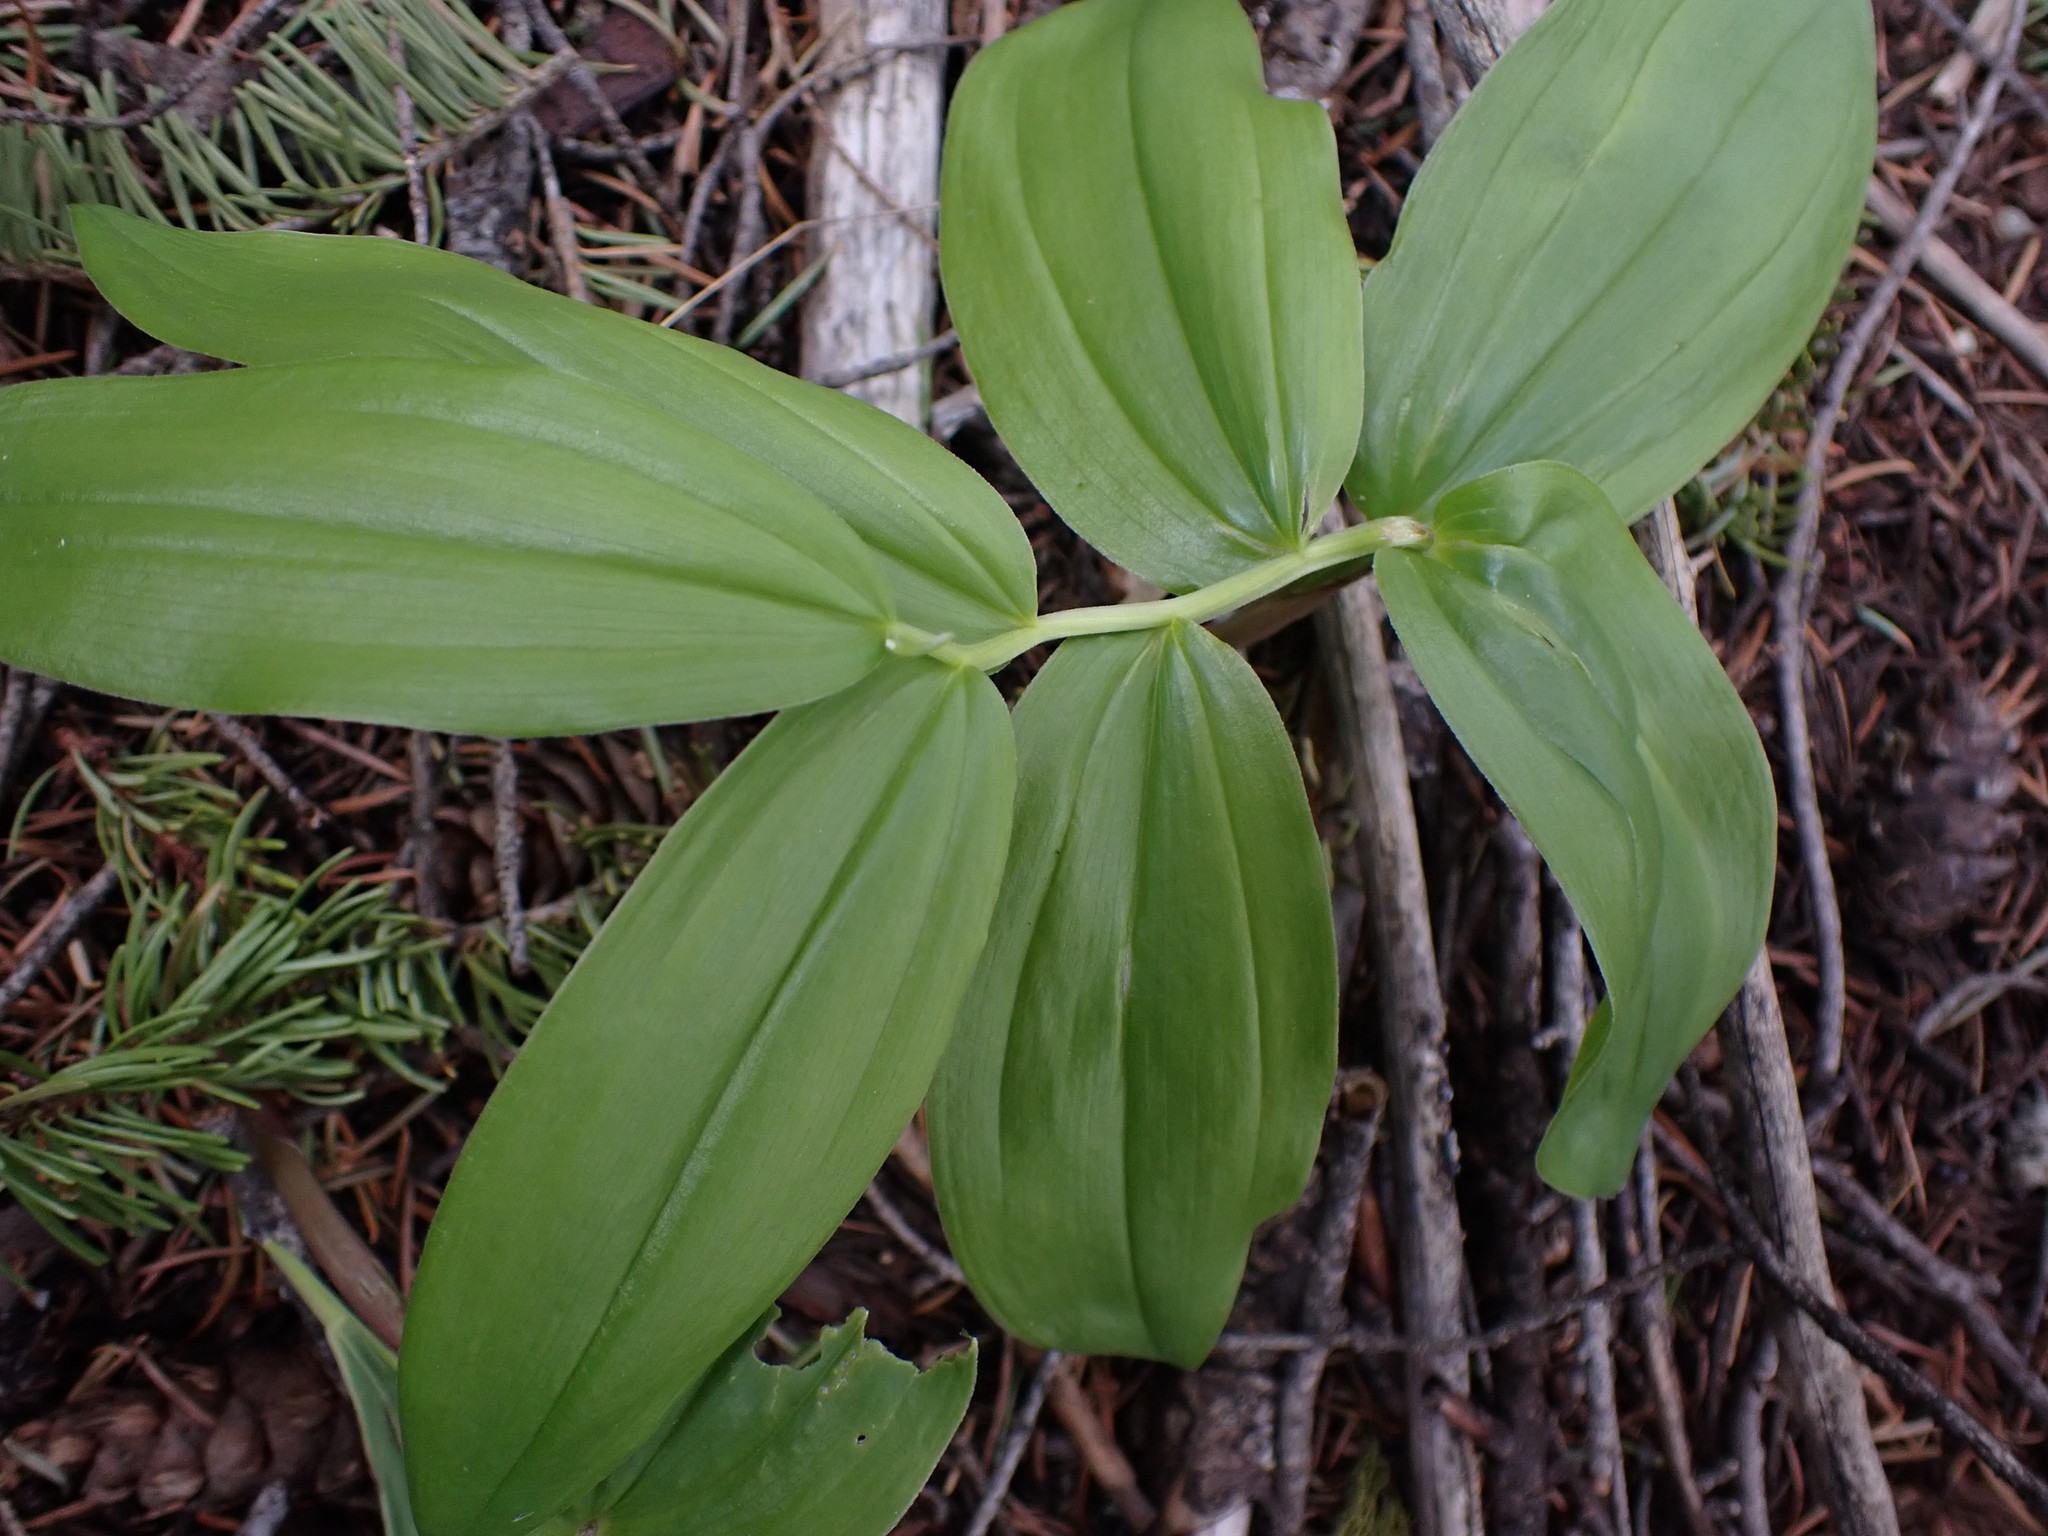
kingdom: Plantae
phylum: Tracheophyta
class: Liliopsida
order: Asparagales
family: Asparagaceae
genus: Maianthemum
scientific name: Maianthemum racemosum
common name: False spikenard
